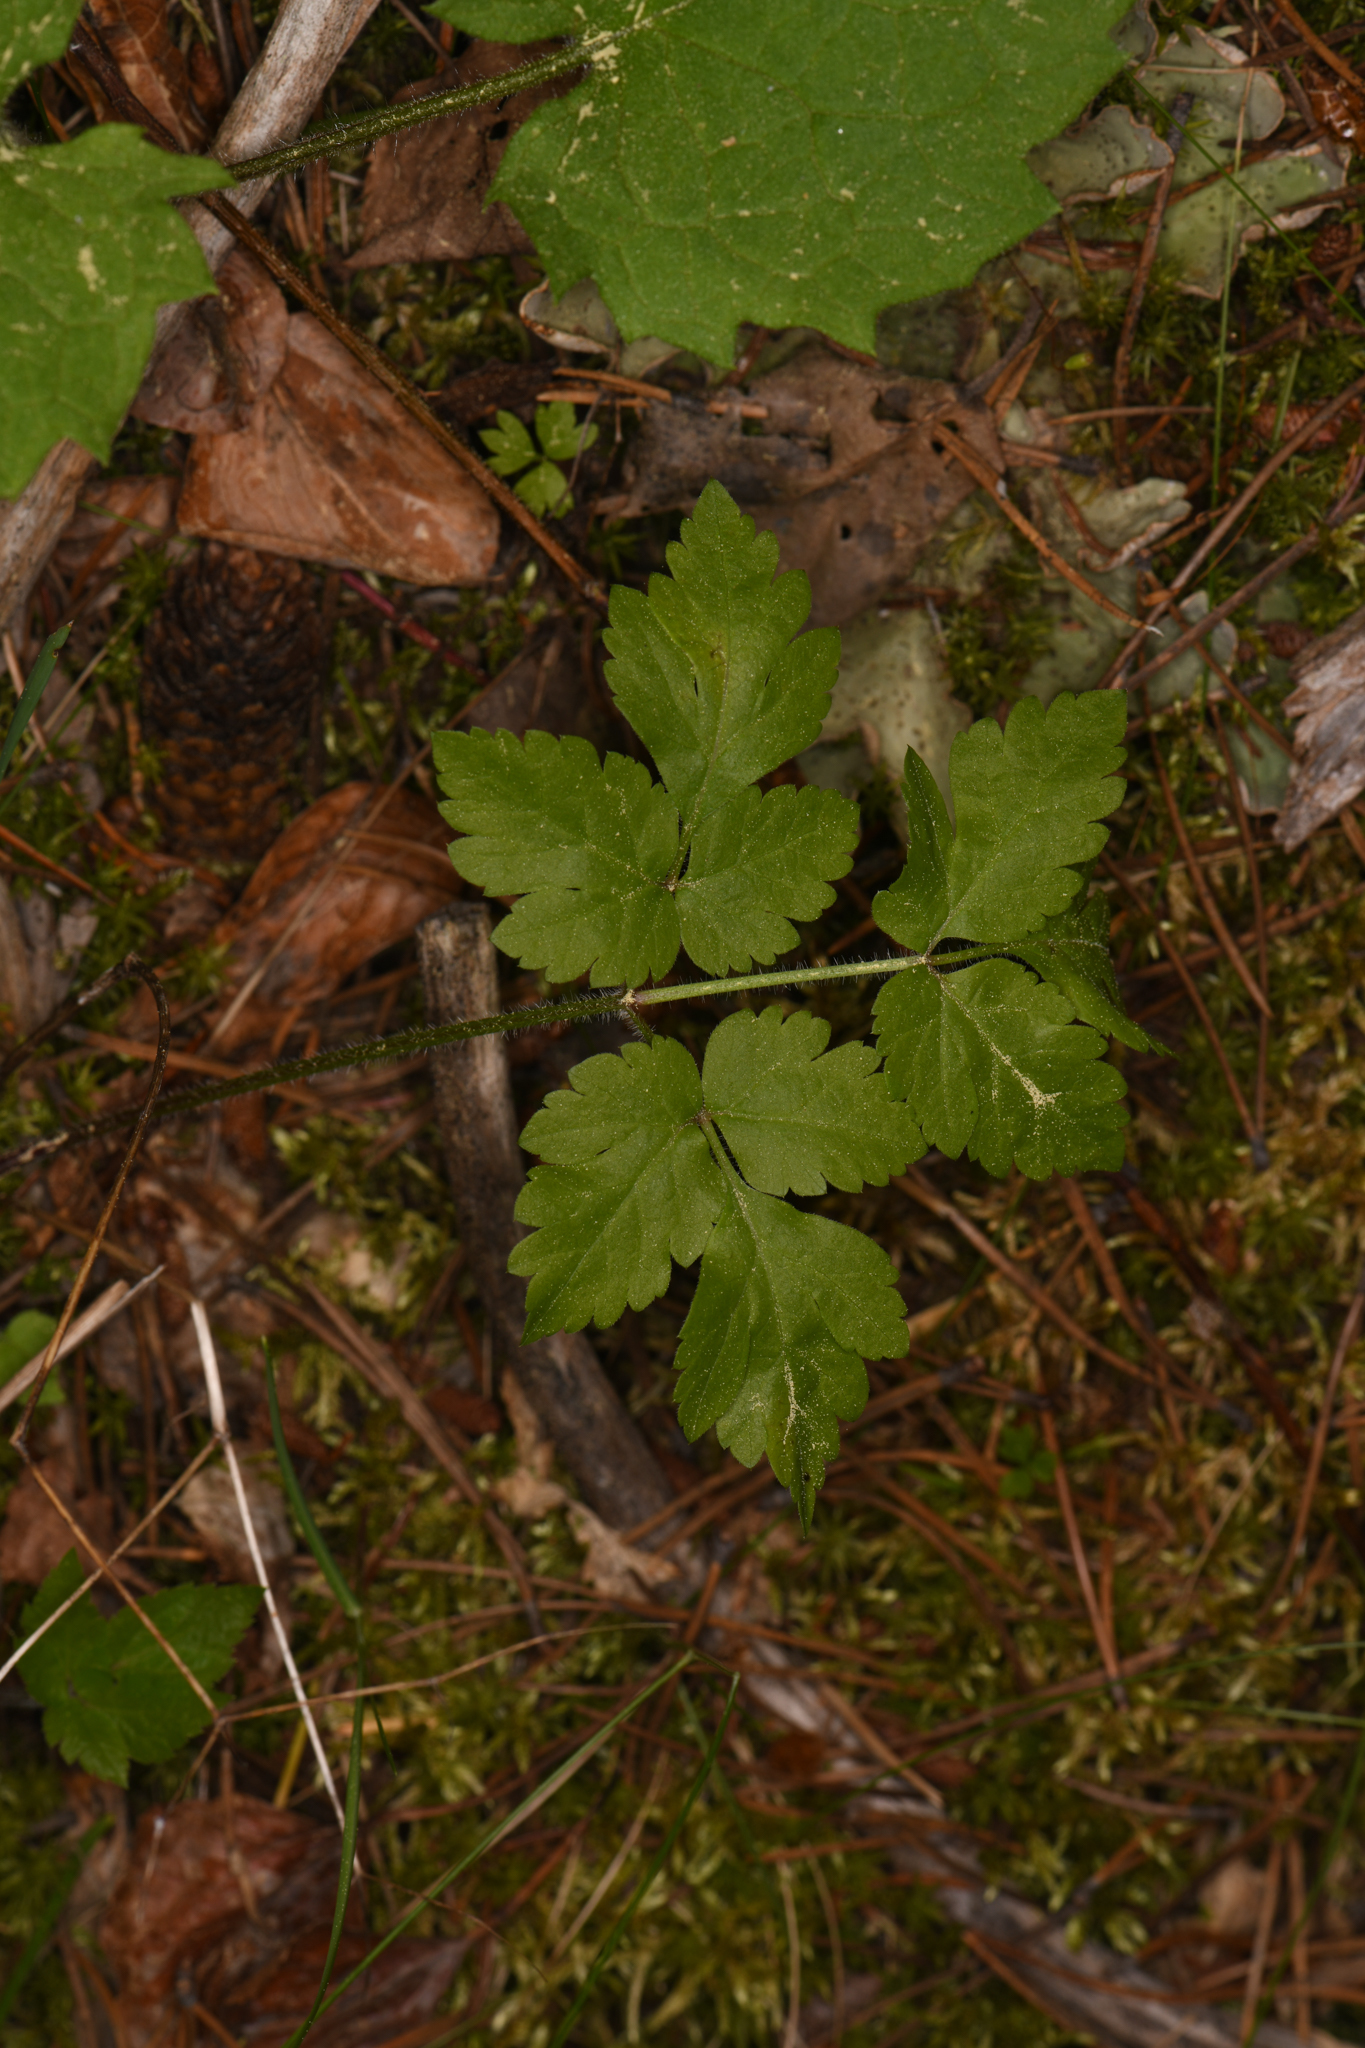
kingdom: Plantae
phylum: Tracheophyta
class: Magnoliopsida
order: Apiales
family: Apiaceae
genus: Osmorhiza
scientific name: Osmorhiza berteroi
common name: Mountain sweet cicely
